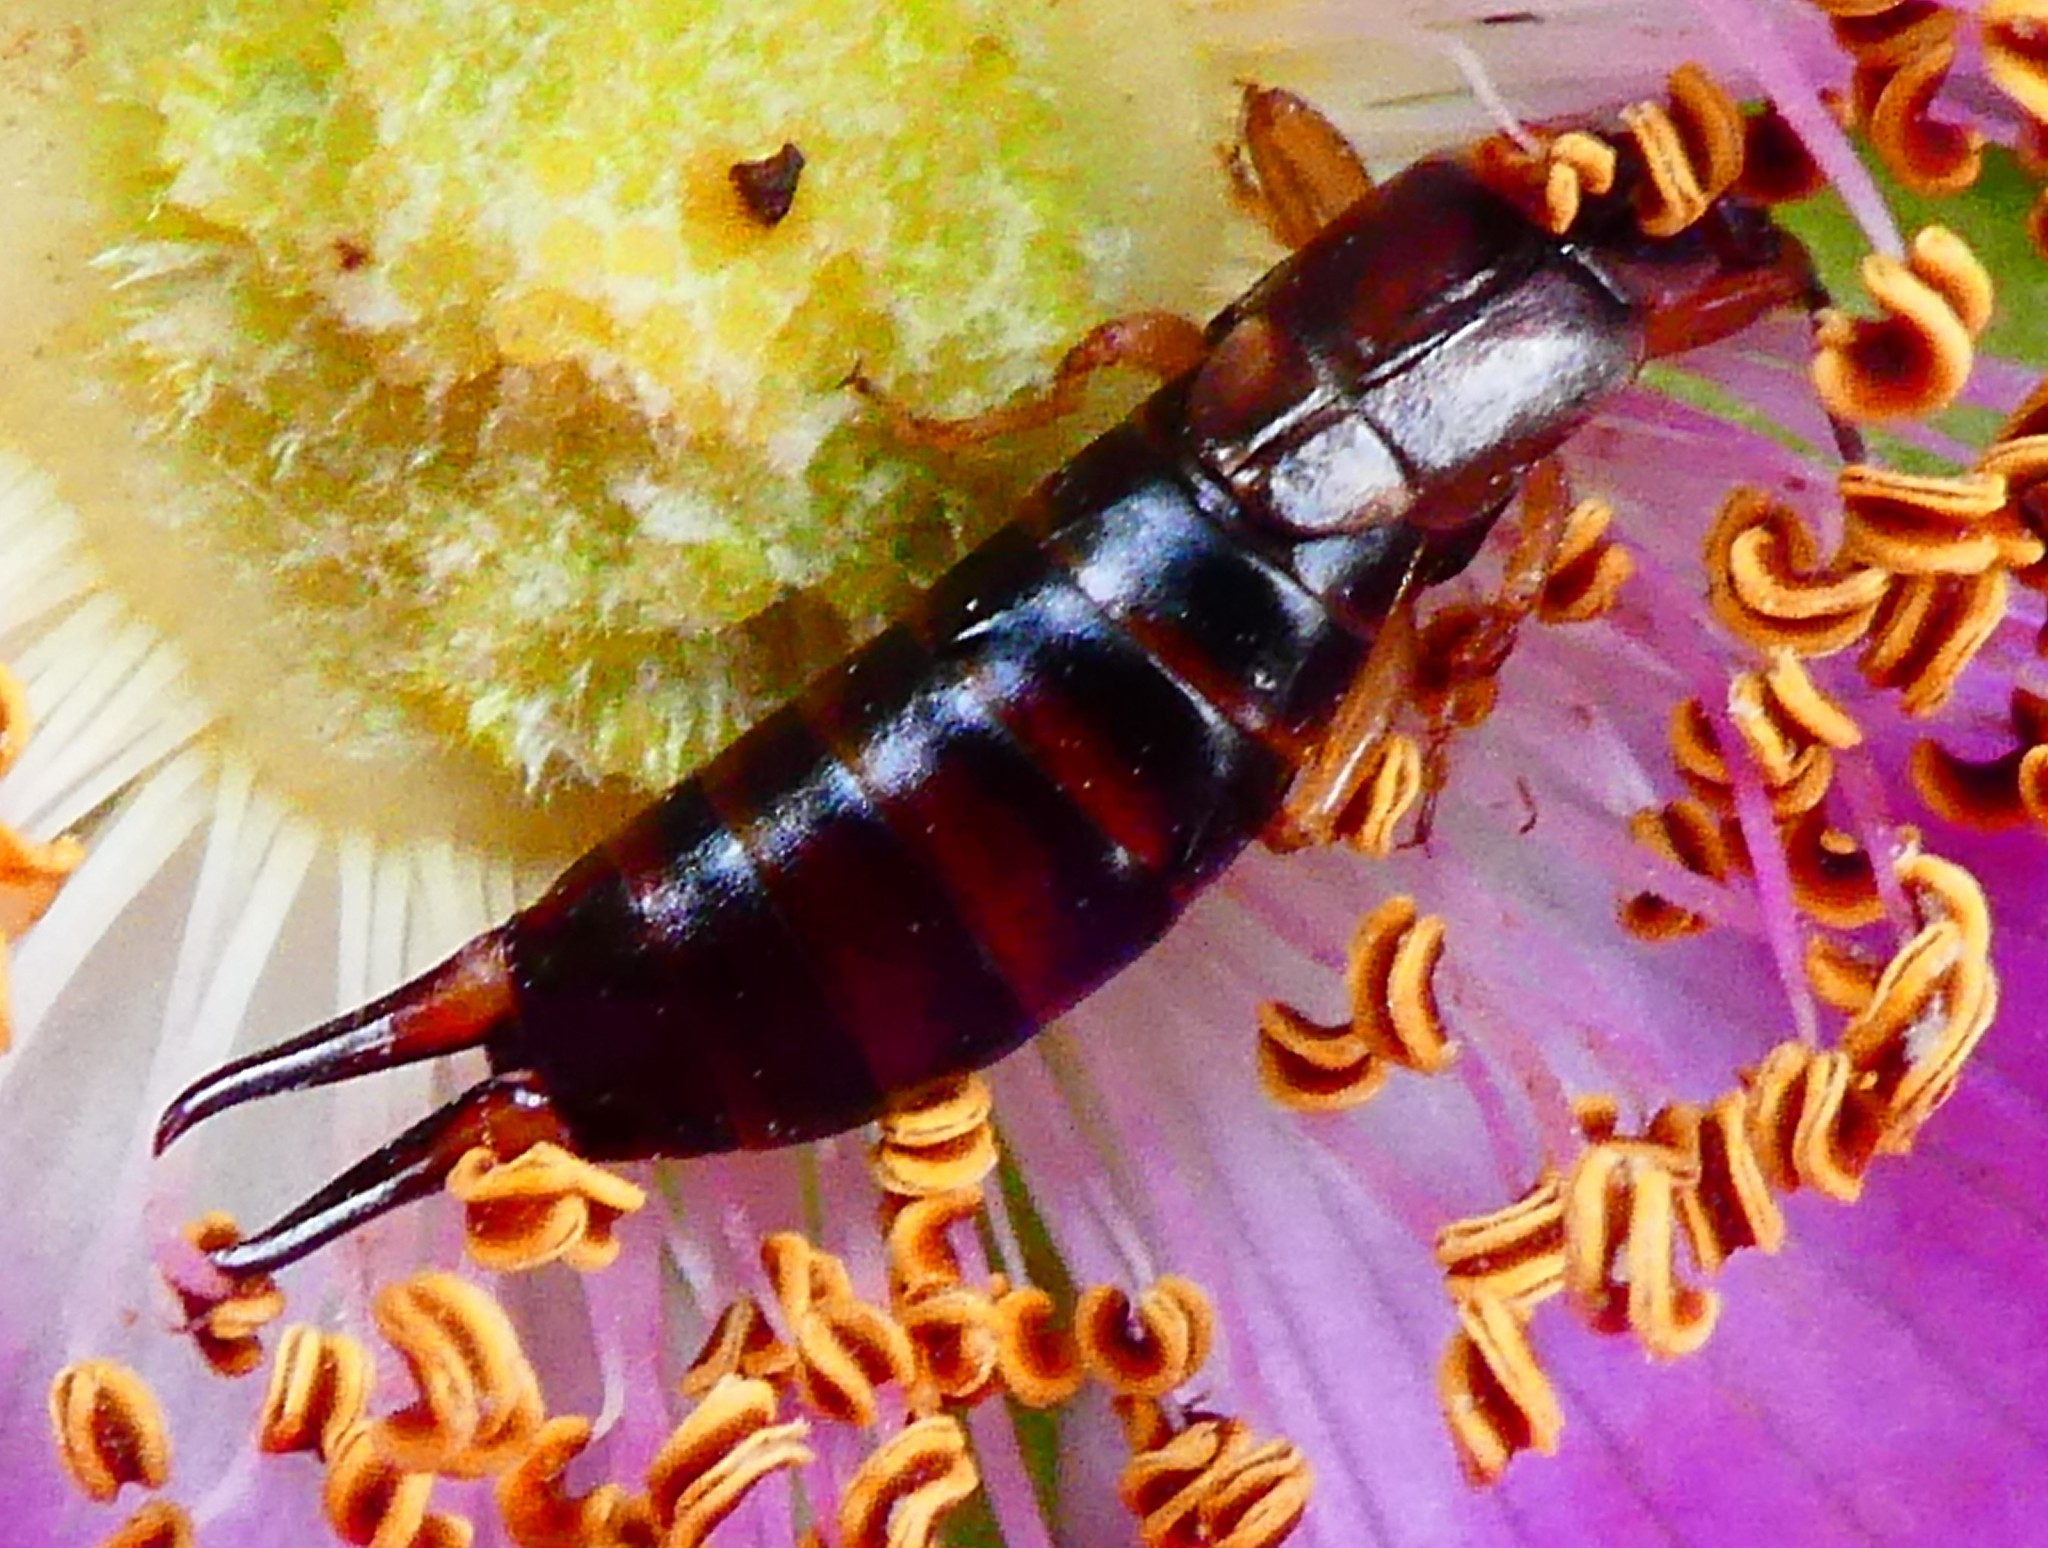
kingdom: Animalia
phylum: Arthropoda
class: Insecta
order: Dermaptera
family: Forficulidae
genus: Forficula
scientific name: Forficula
